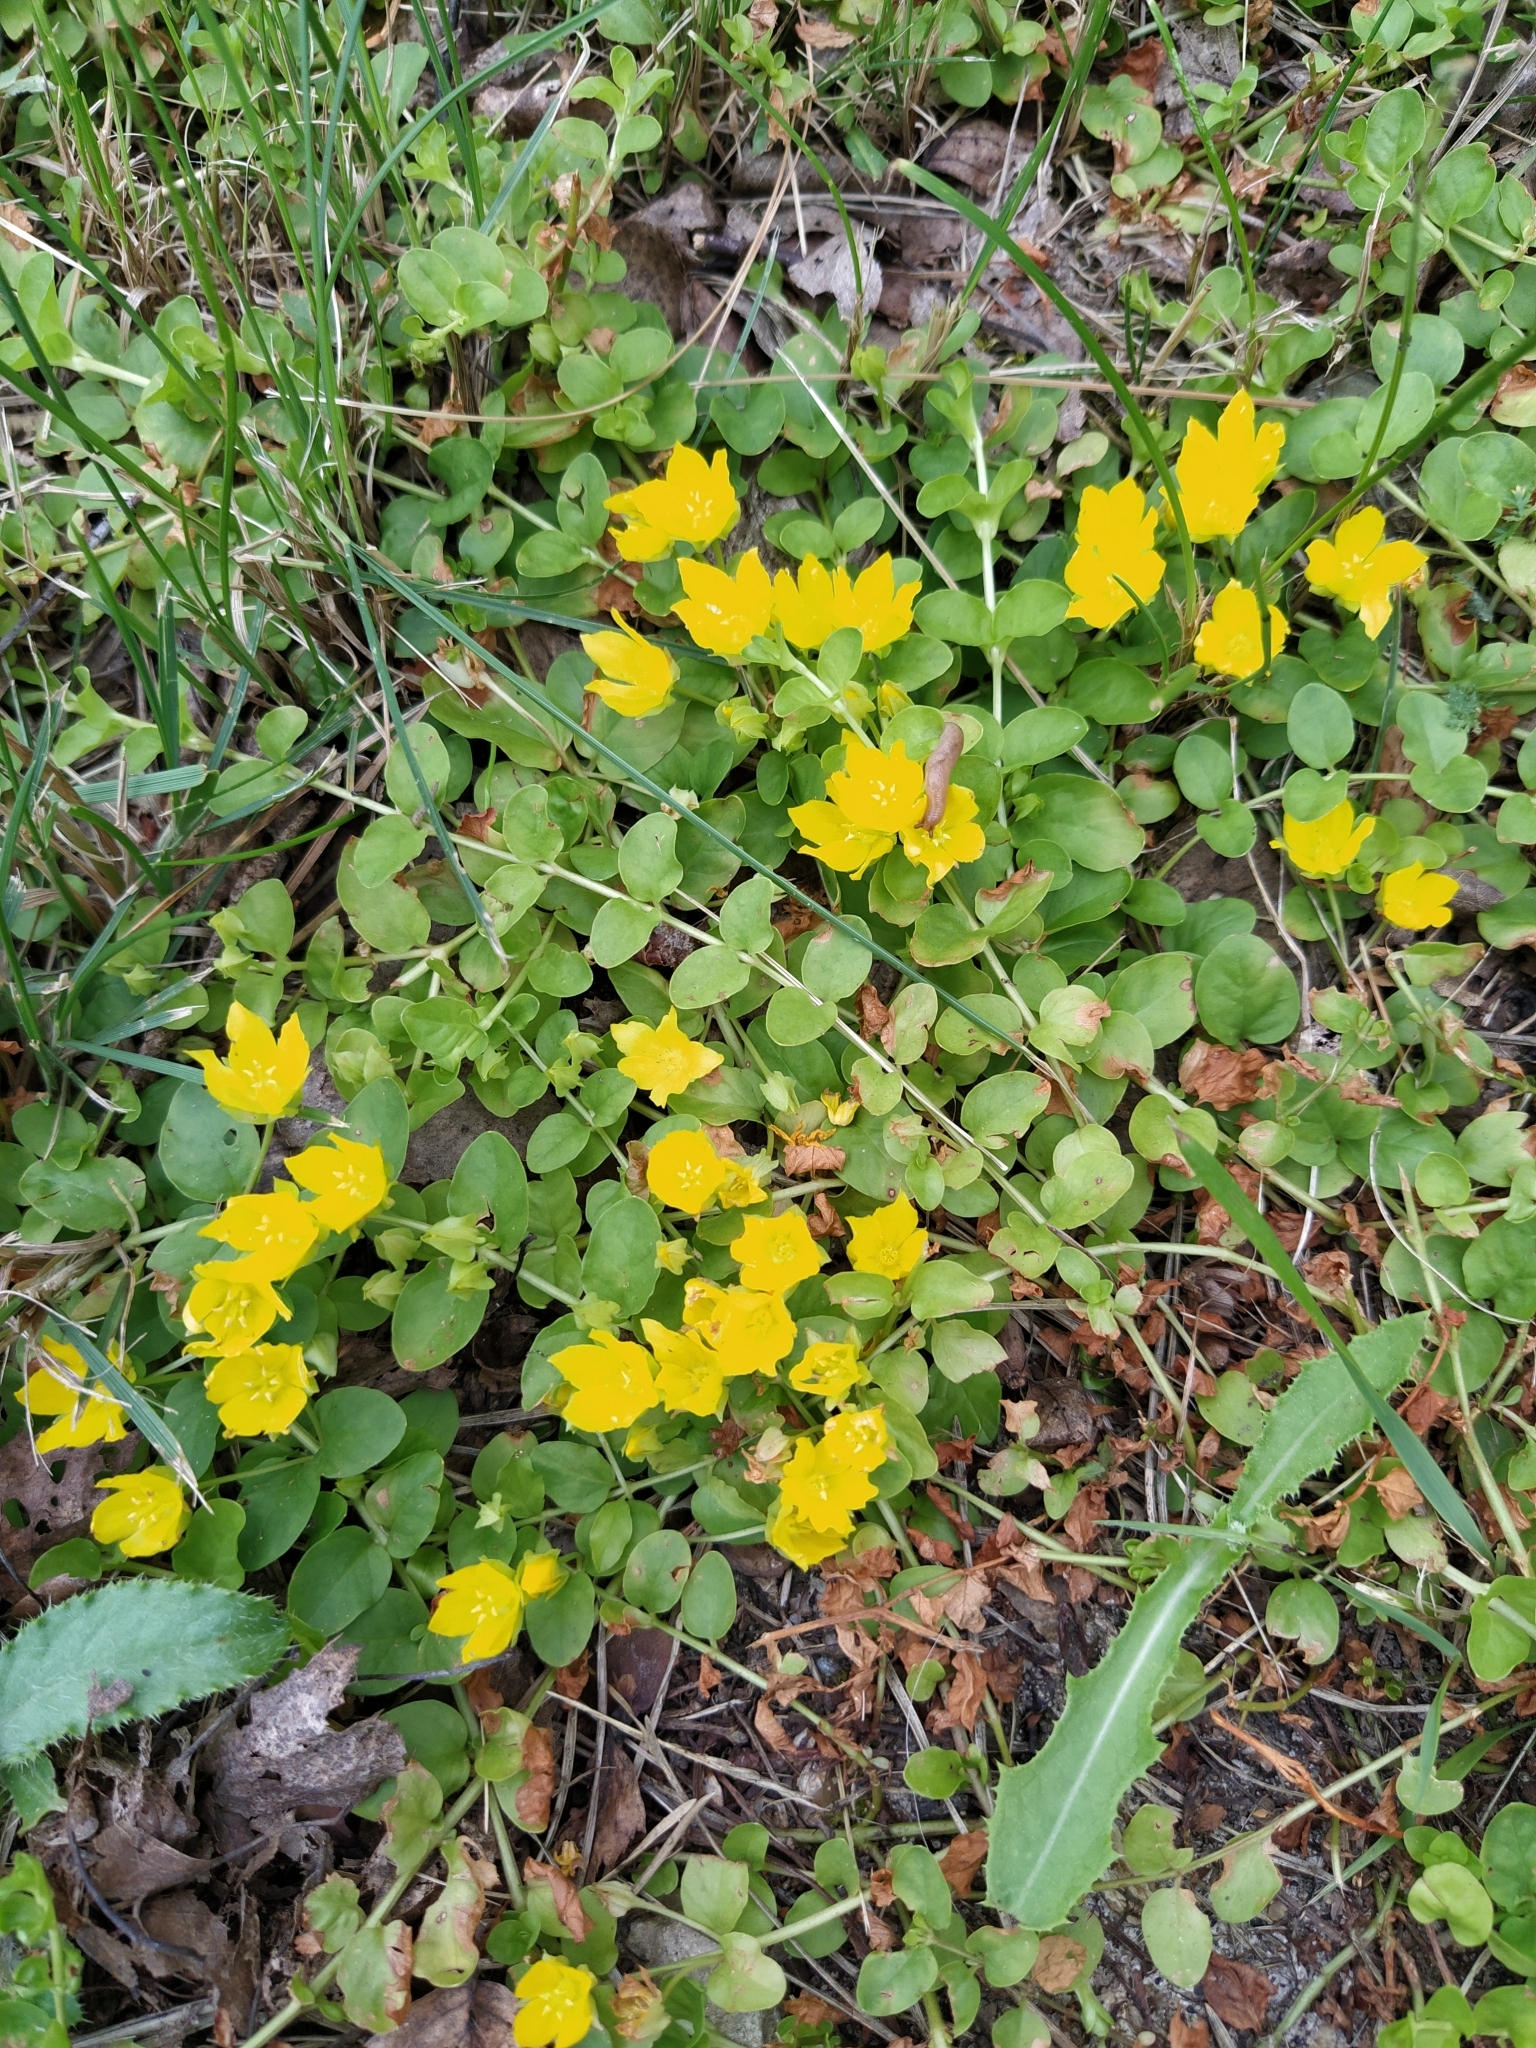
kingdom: Plantae
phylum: Tracheophyta
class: Magnoliopsida
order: Ericales
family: Primulaceae
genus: Lysimachia
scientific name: Lysimachia nummularia
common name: Moneywort
